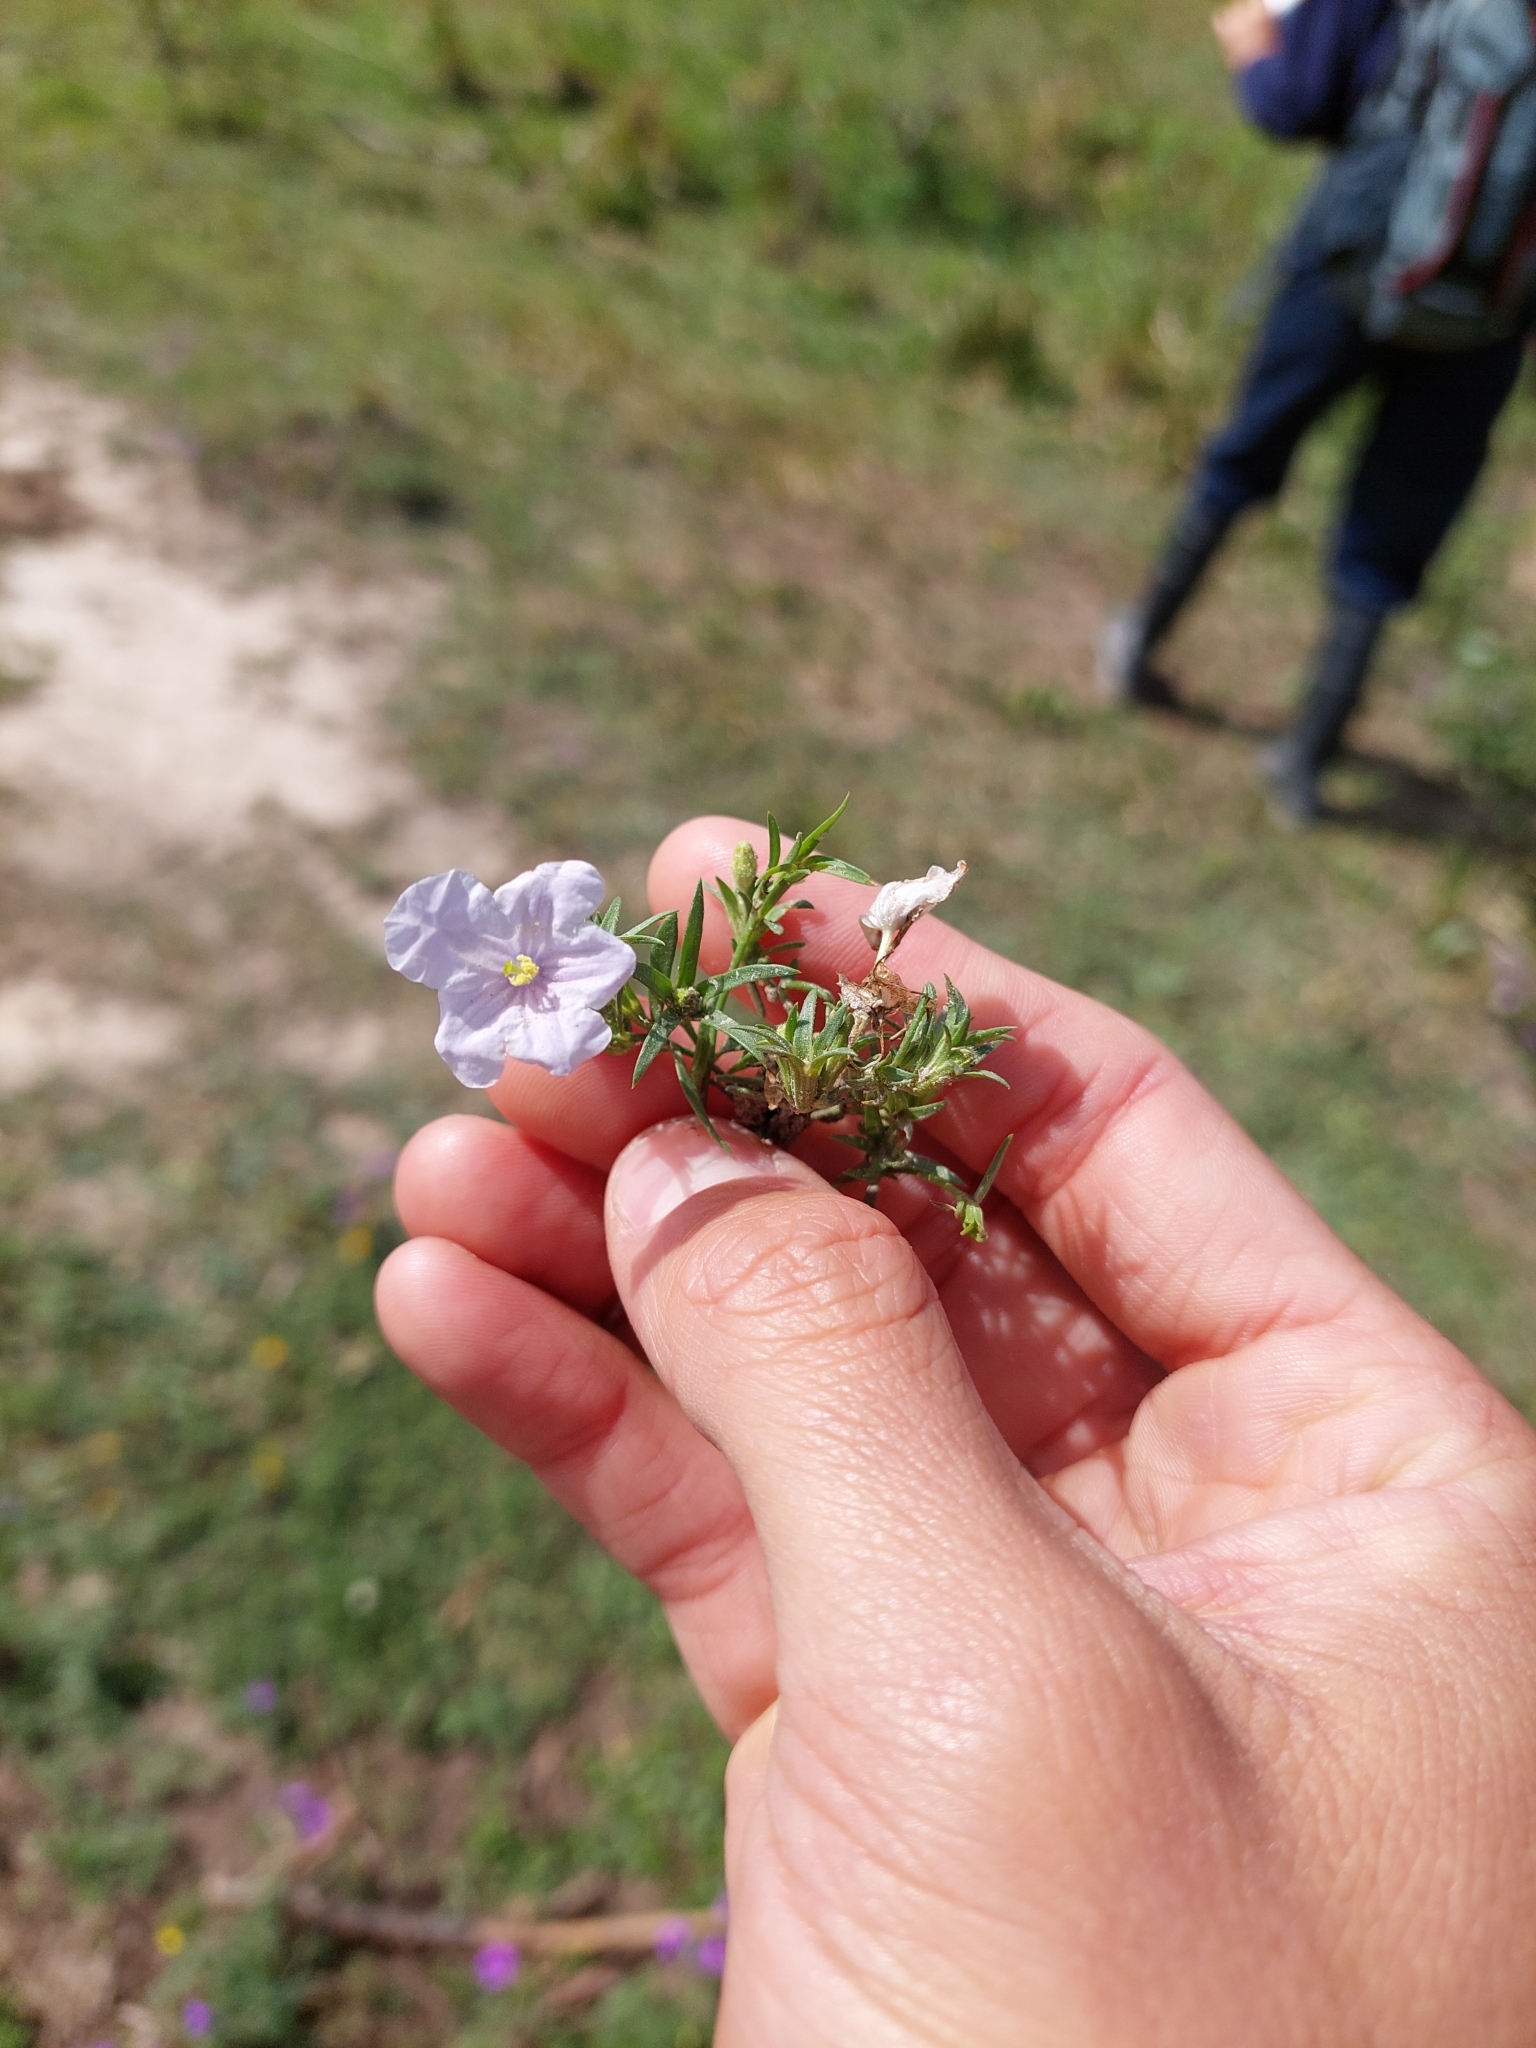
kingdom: Plantae
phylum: Tracheophyta
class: Magnoliopsida
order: Solanales
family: Solanaceae
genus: Nierembergia
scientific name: Nierembergia aristata
